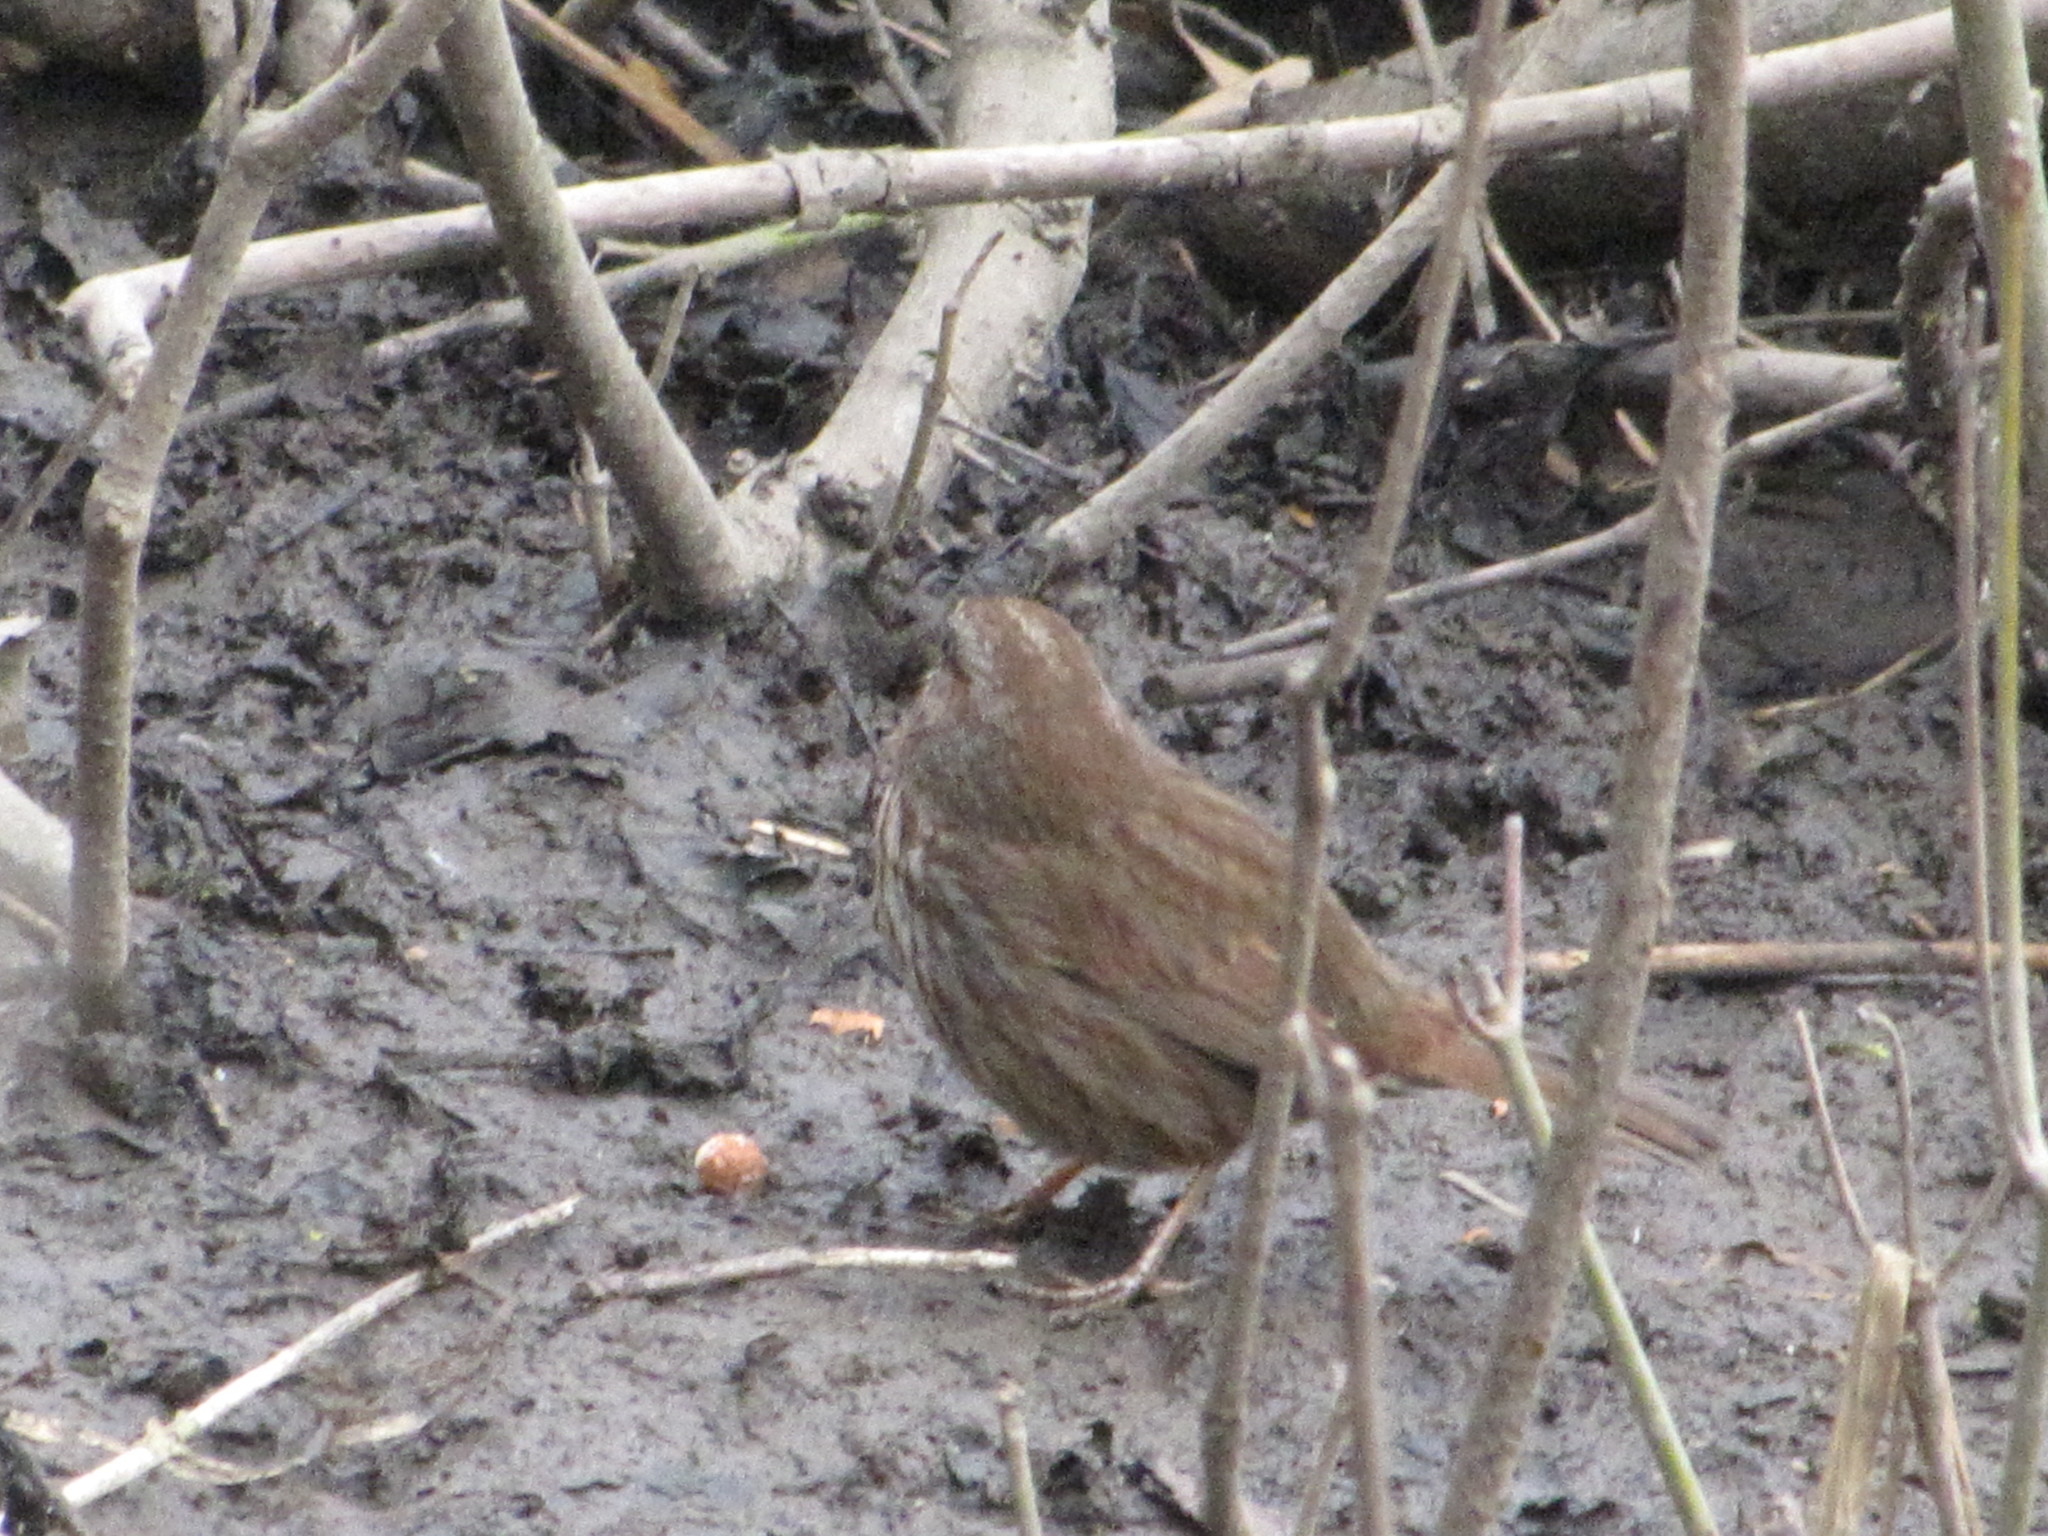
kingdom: Animalia
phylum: Chordata
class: Aves
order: Passeriformes
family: Passerellidae
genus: Melospiza
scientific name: Melospiza melodia
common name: Song sparrow
